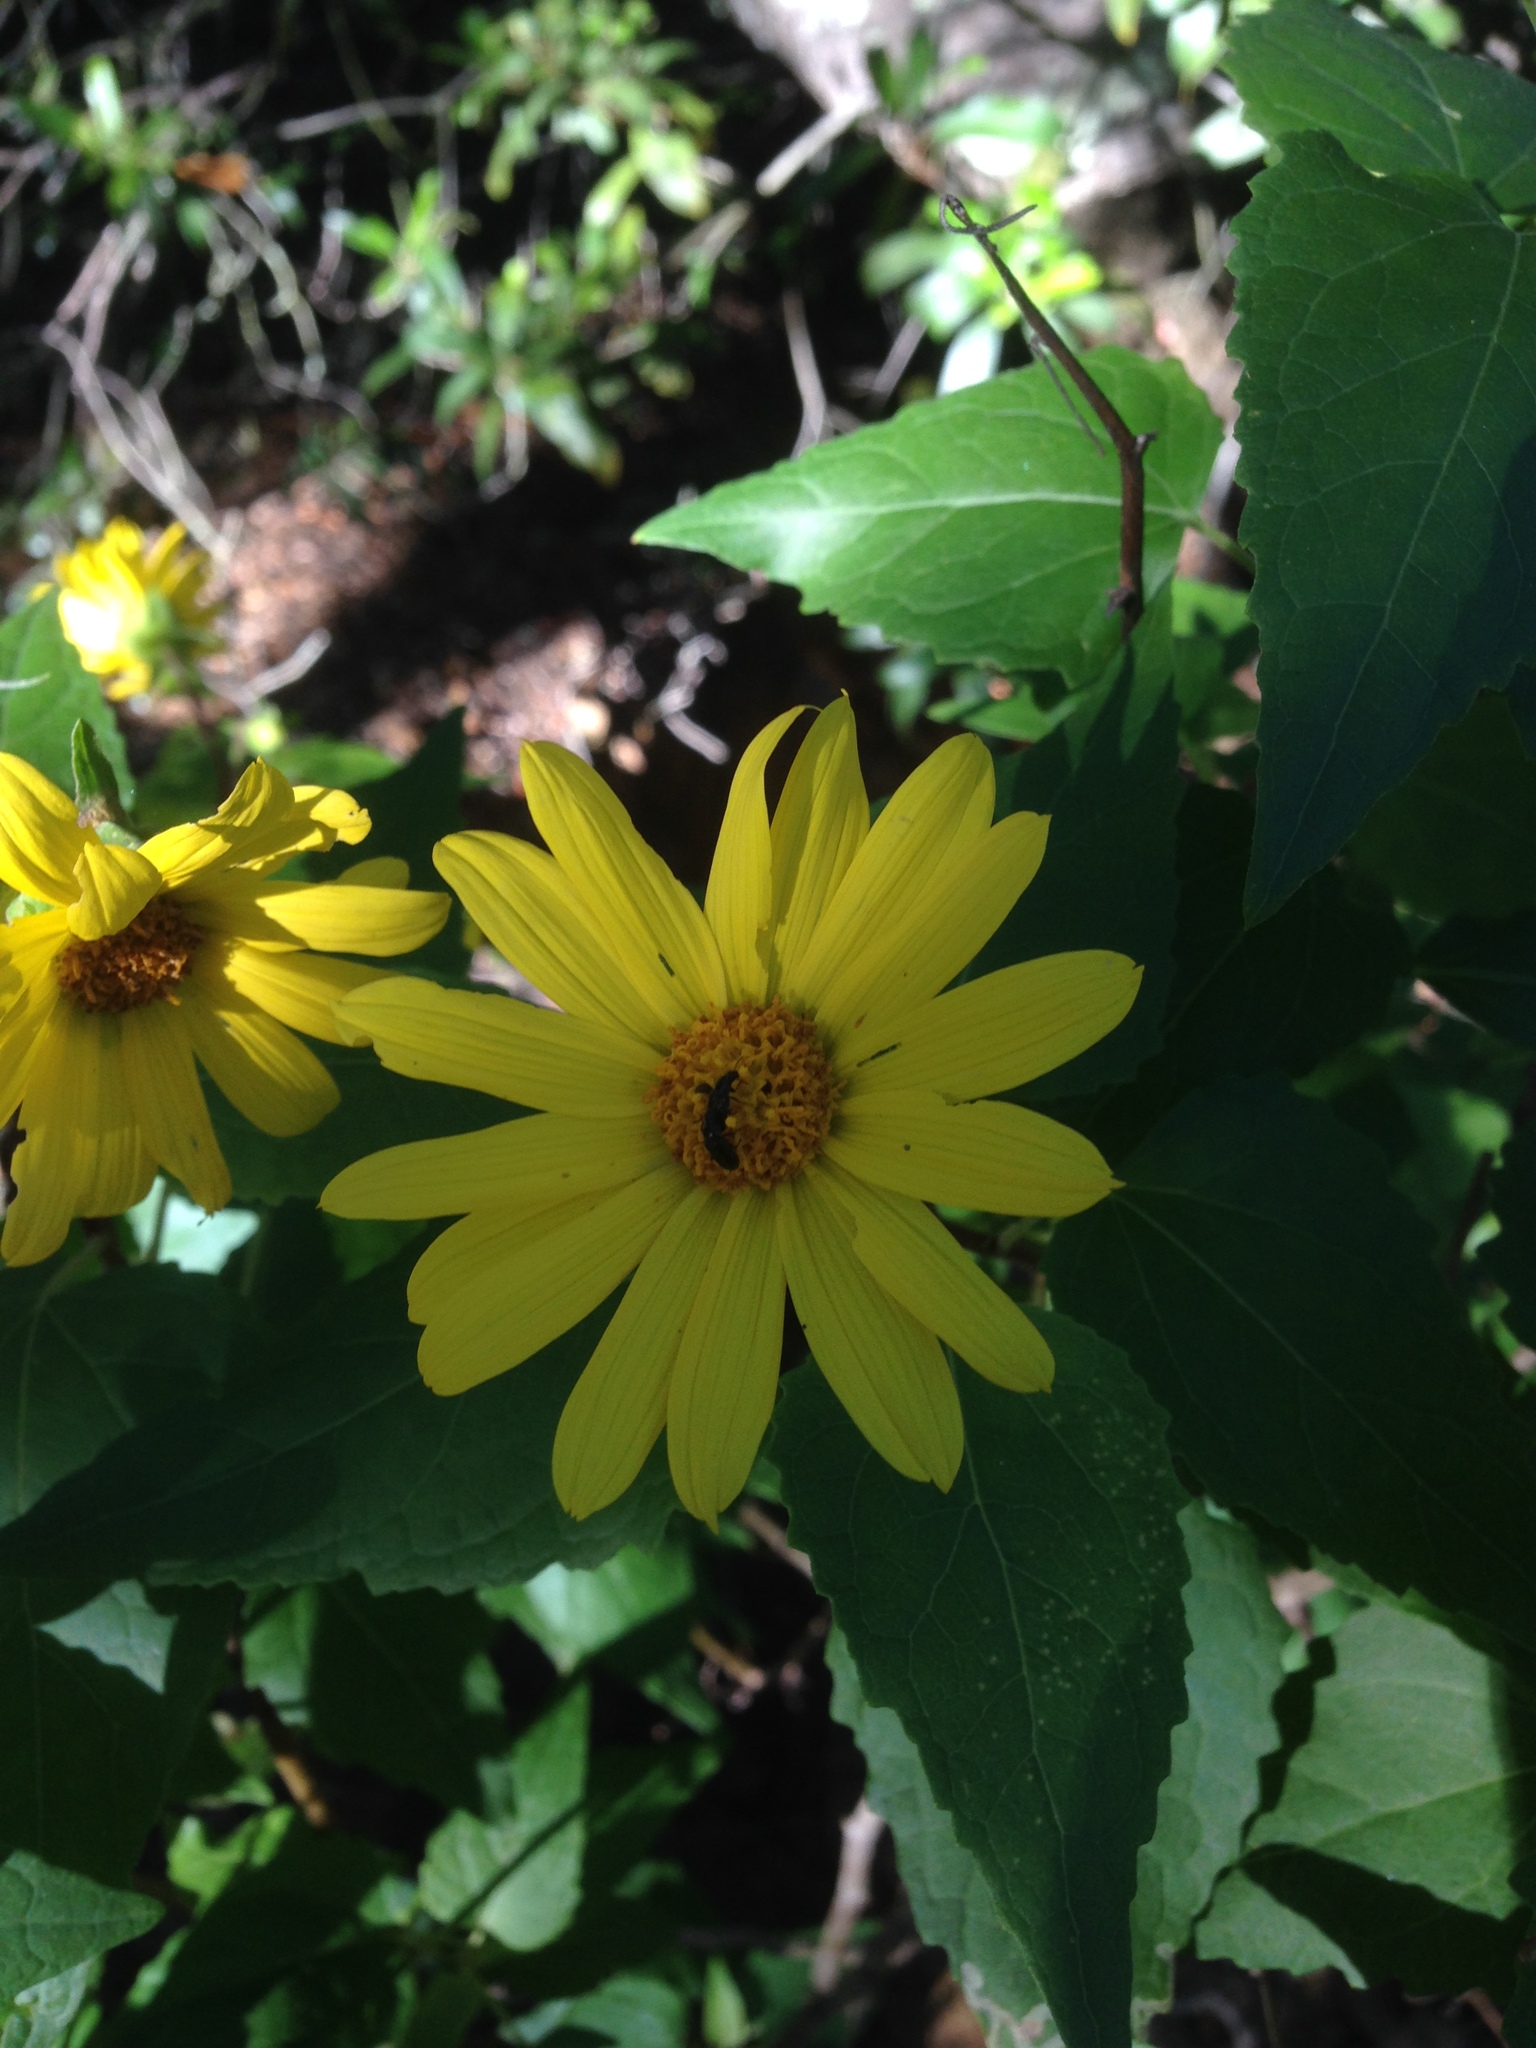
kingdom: Plantae
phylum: Tracheophyta
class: Magnoliopsida
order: Asterales
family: Asteraceae
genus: Venegasia
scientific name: Venegasia carpesioides
